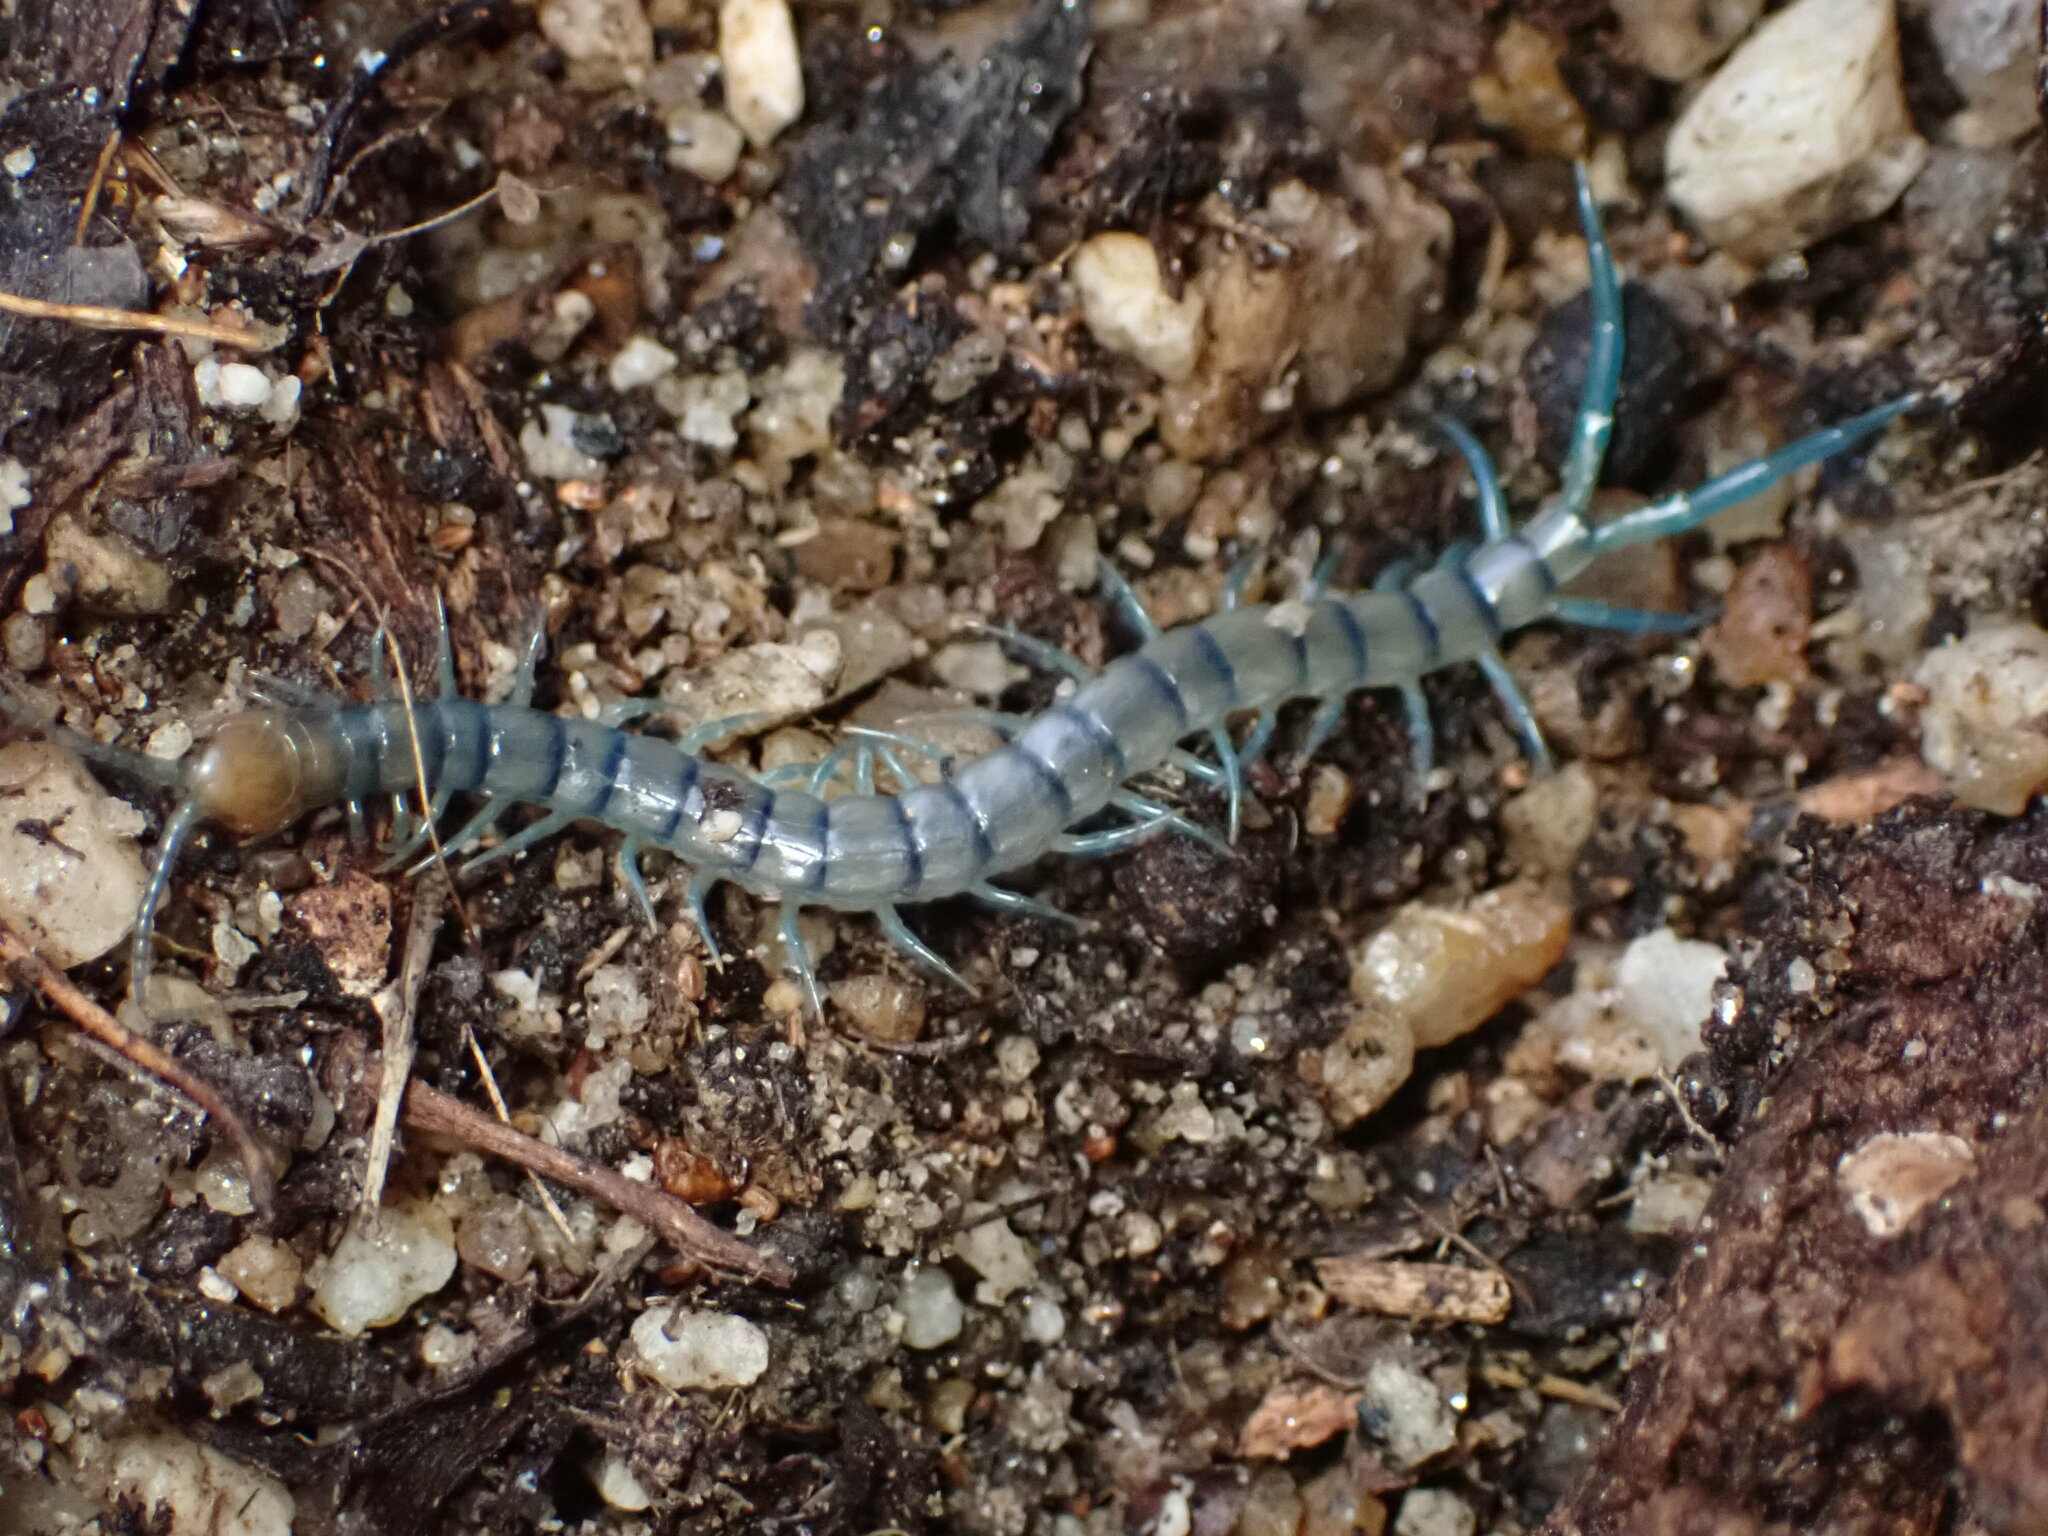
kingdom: Animalia
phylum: Arthropoda
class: Chilopoda
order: Scolopendromorpha
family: Scolopendridae
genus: Scolopendra
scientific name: Scolopendra polymorpha
